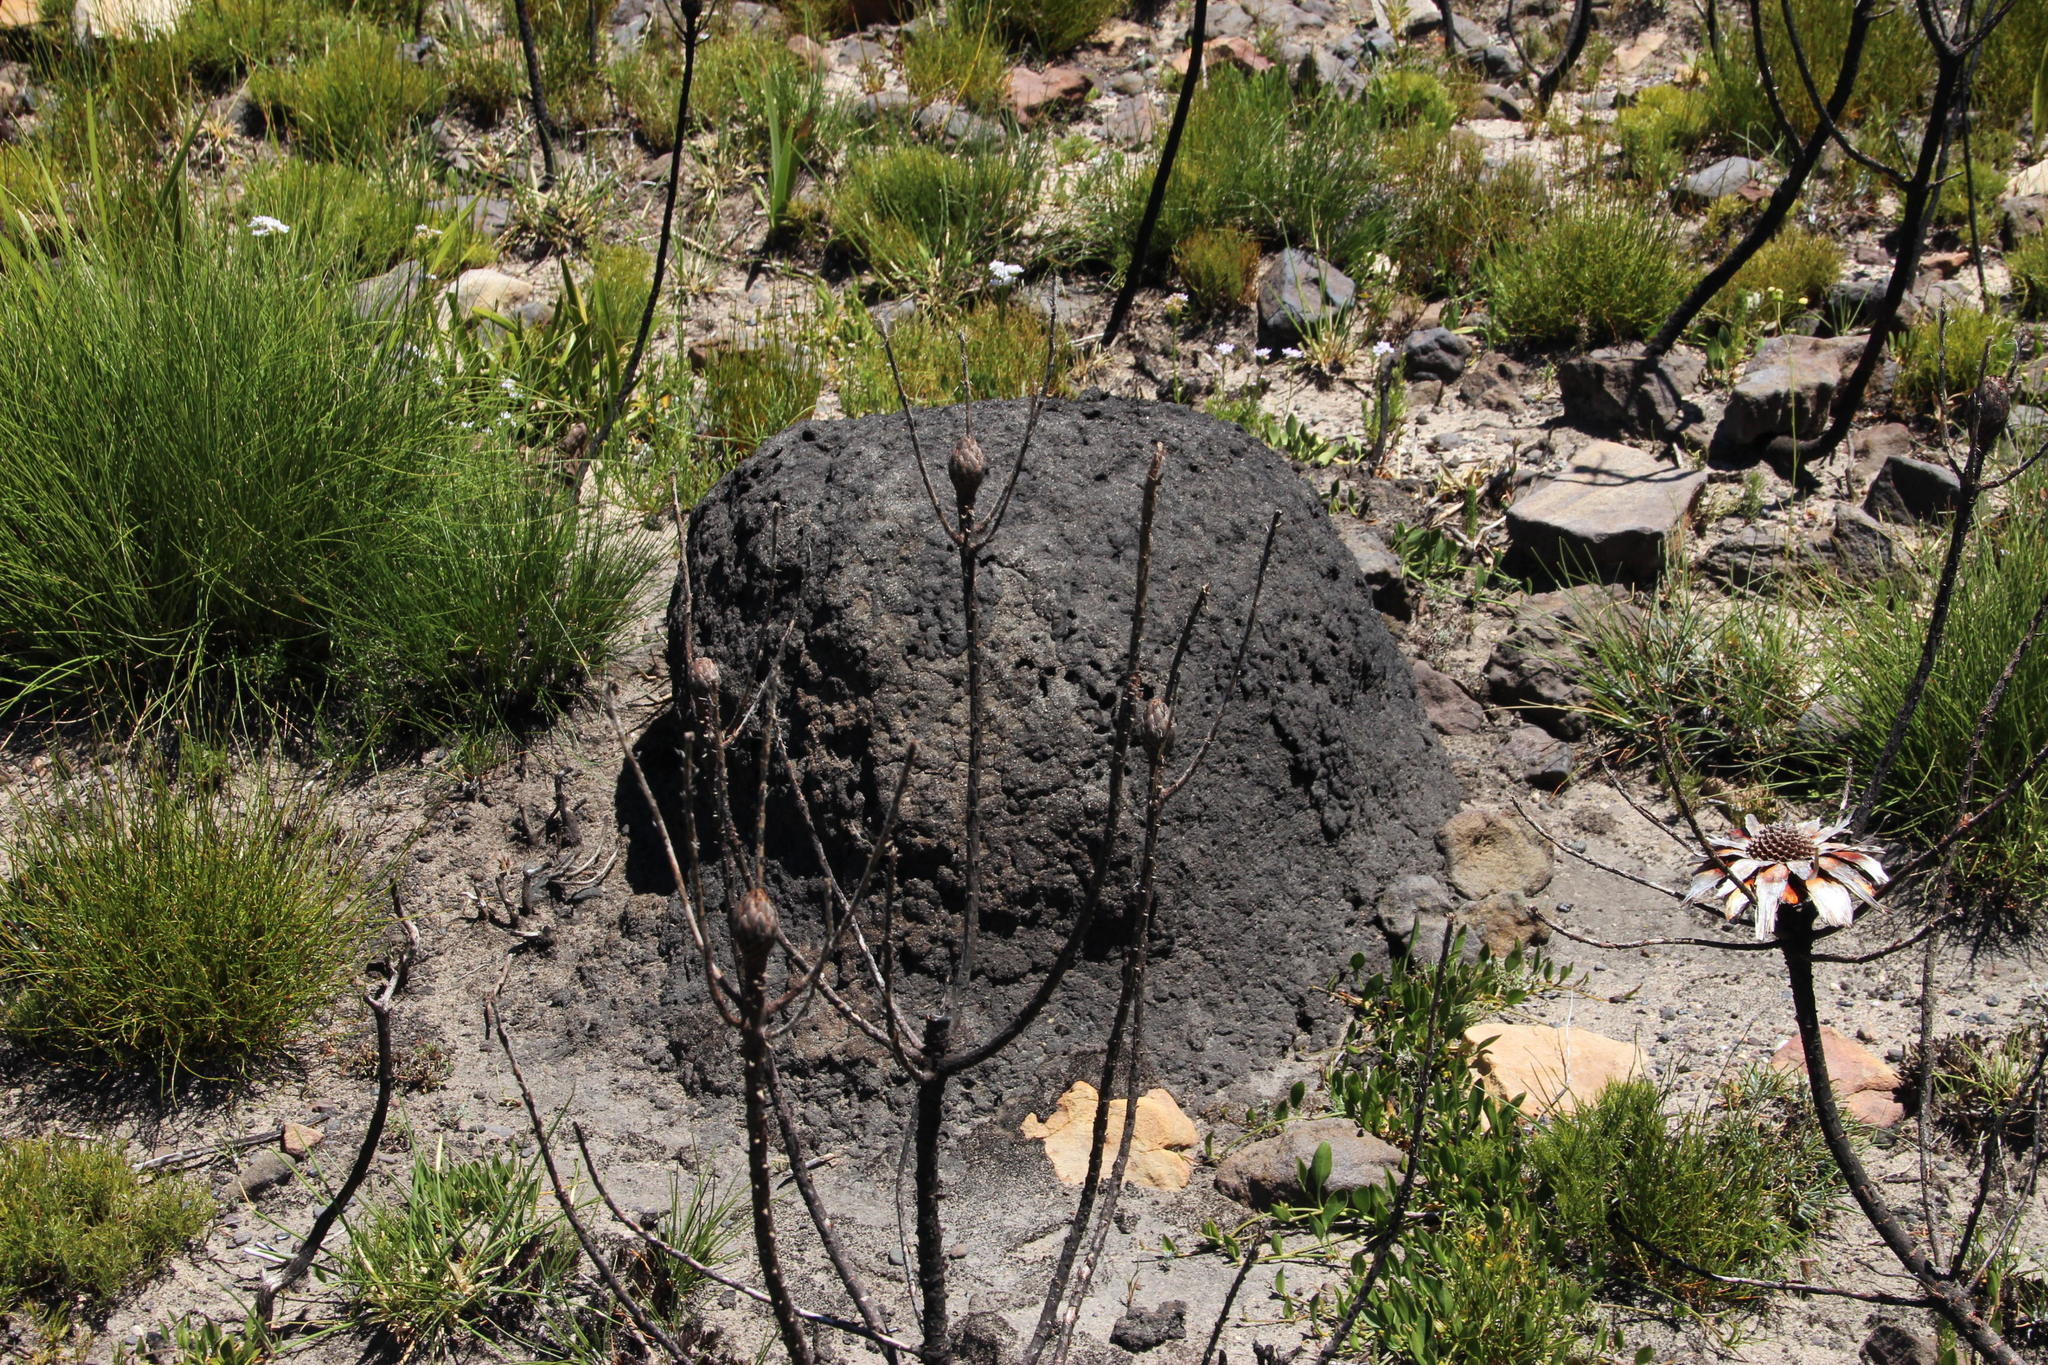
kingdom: Animalia
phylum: Arthropoda
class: Insecta
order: Blattodea
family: Termitidae
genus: Amitermes
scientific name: Amitermes hastatus
